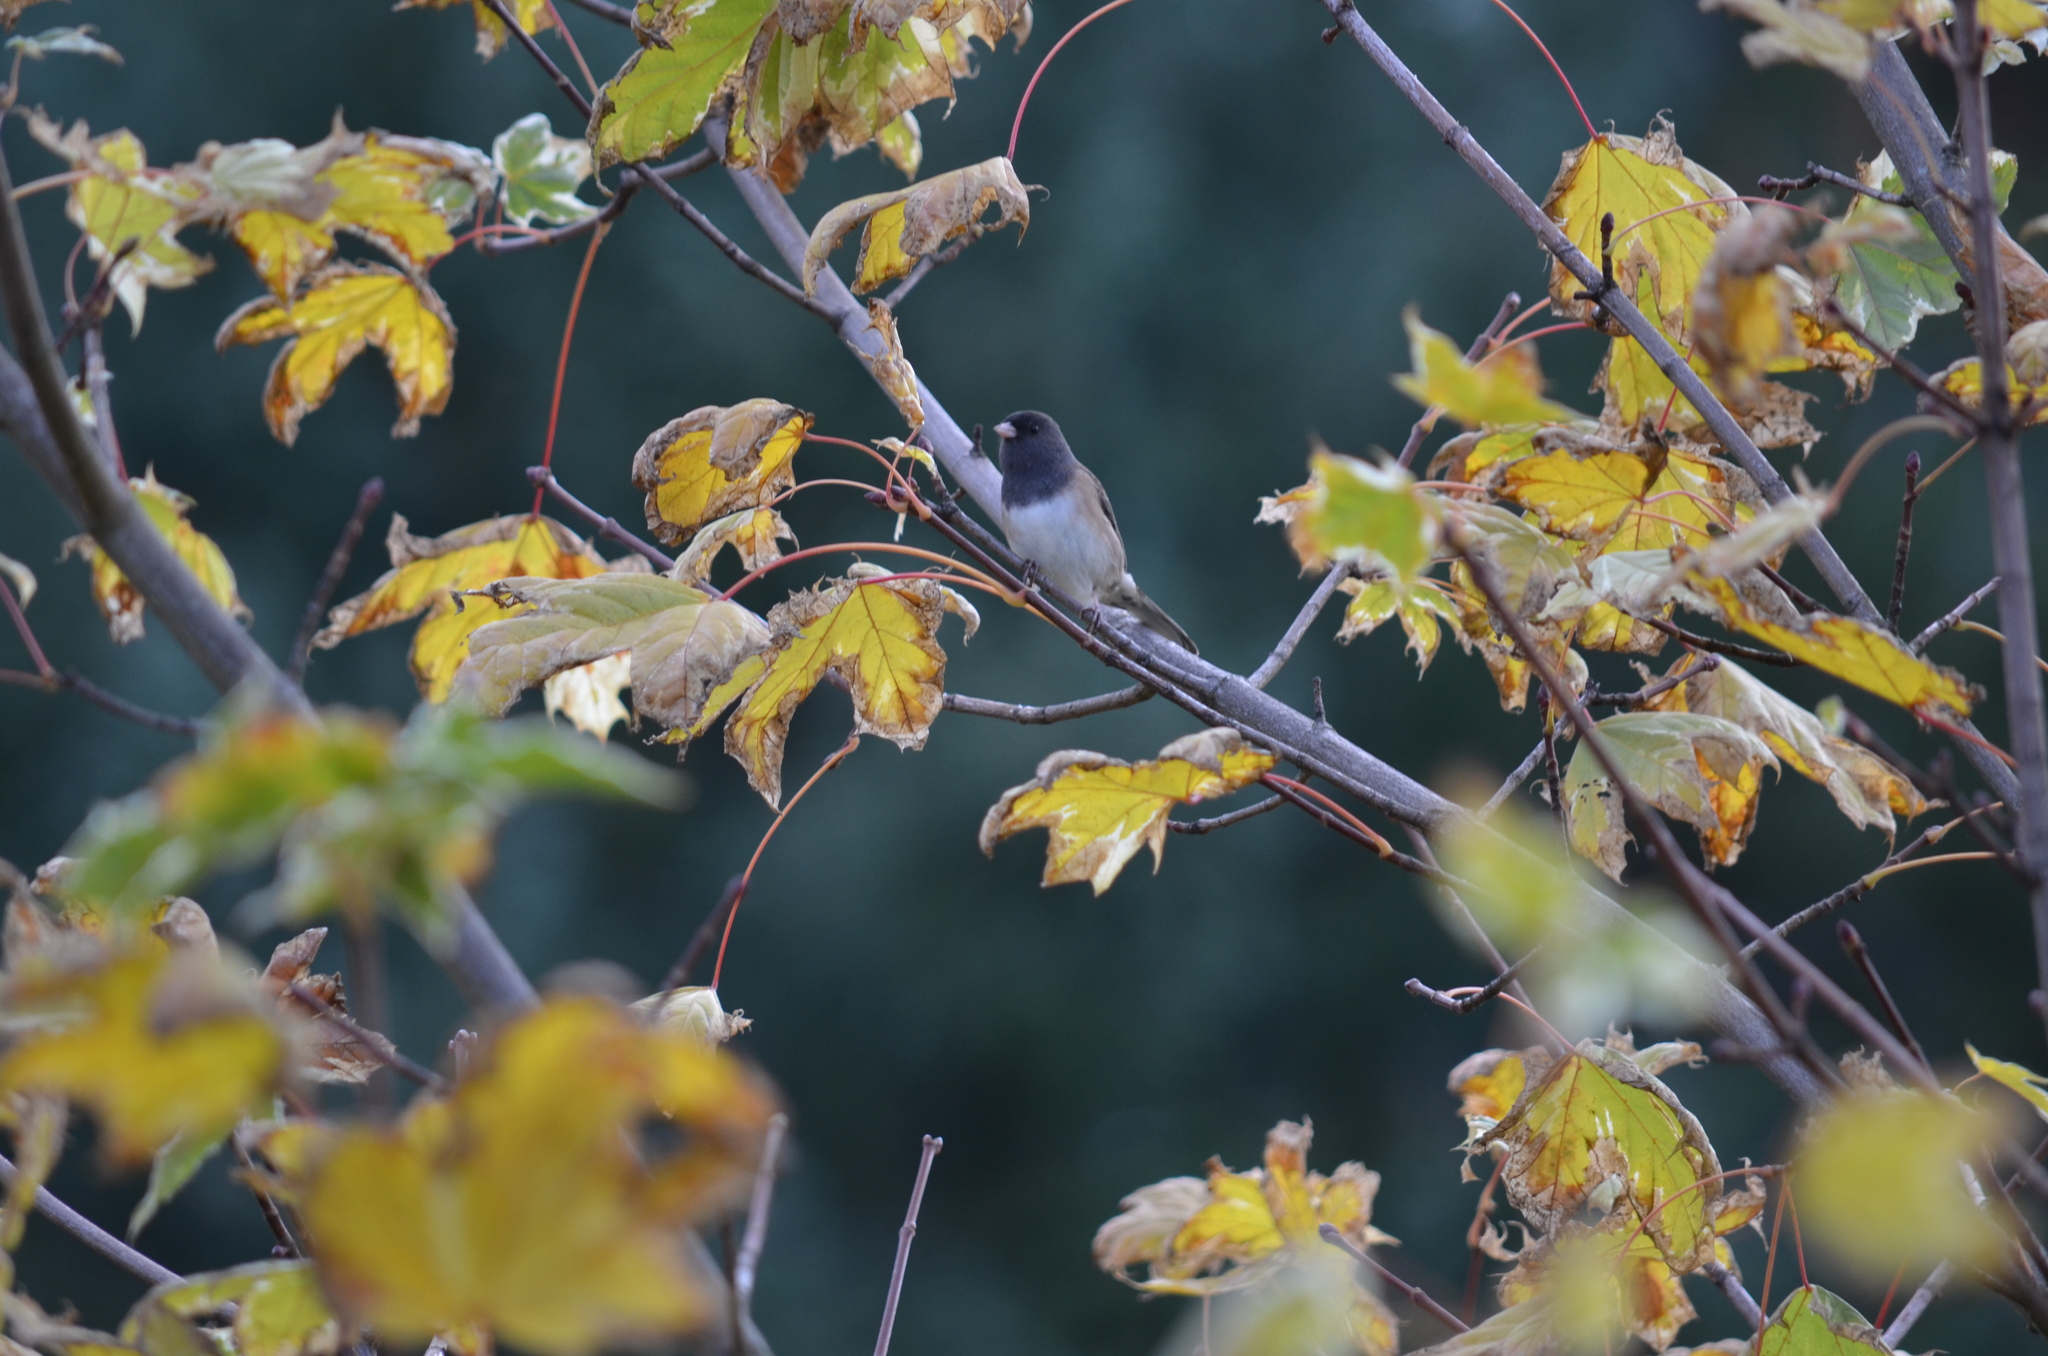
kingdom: Animalia
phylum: Chordata
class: Aves
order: Passeriformes
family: Passerellidae
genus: Junco
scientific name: Junco hyemalis
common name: Dark-eyed junco
